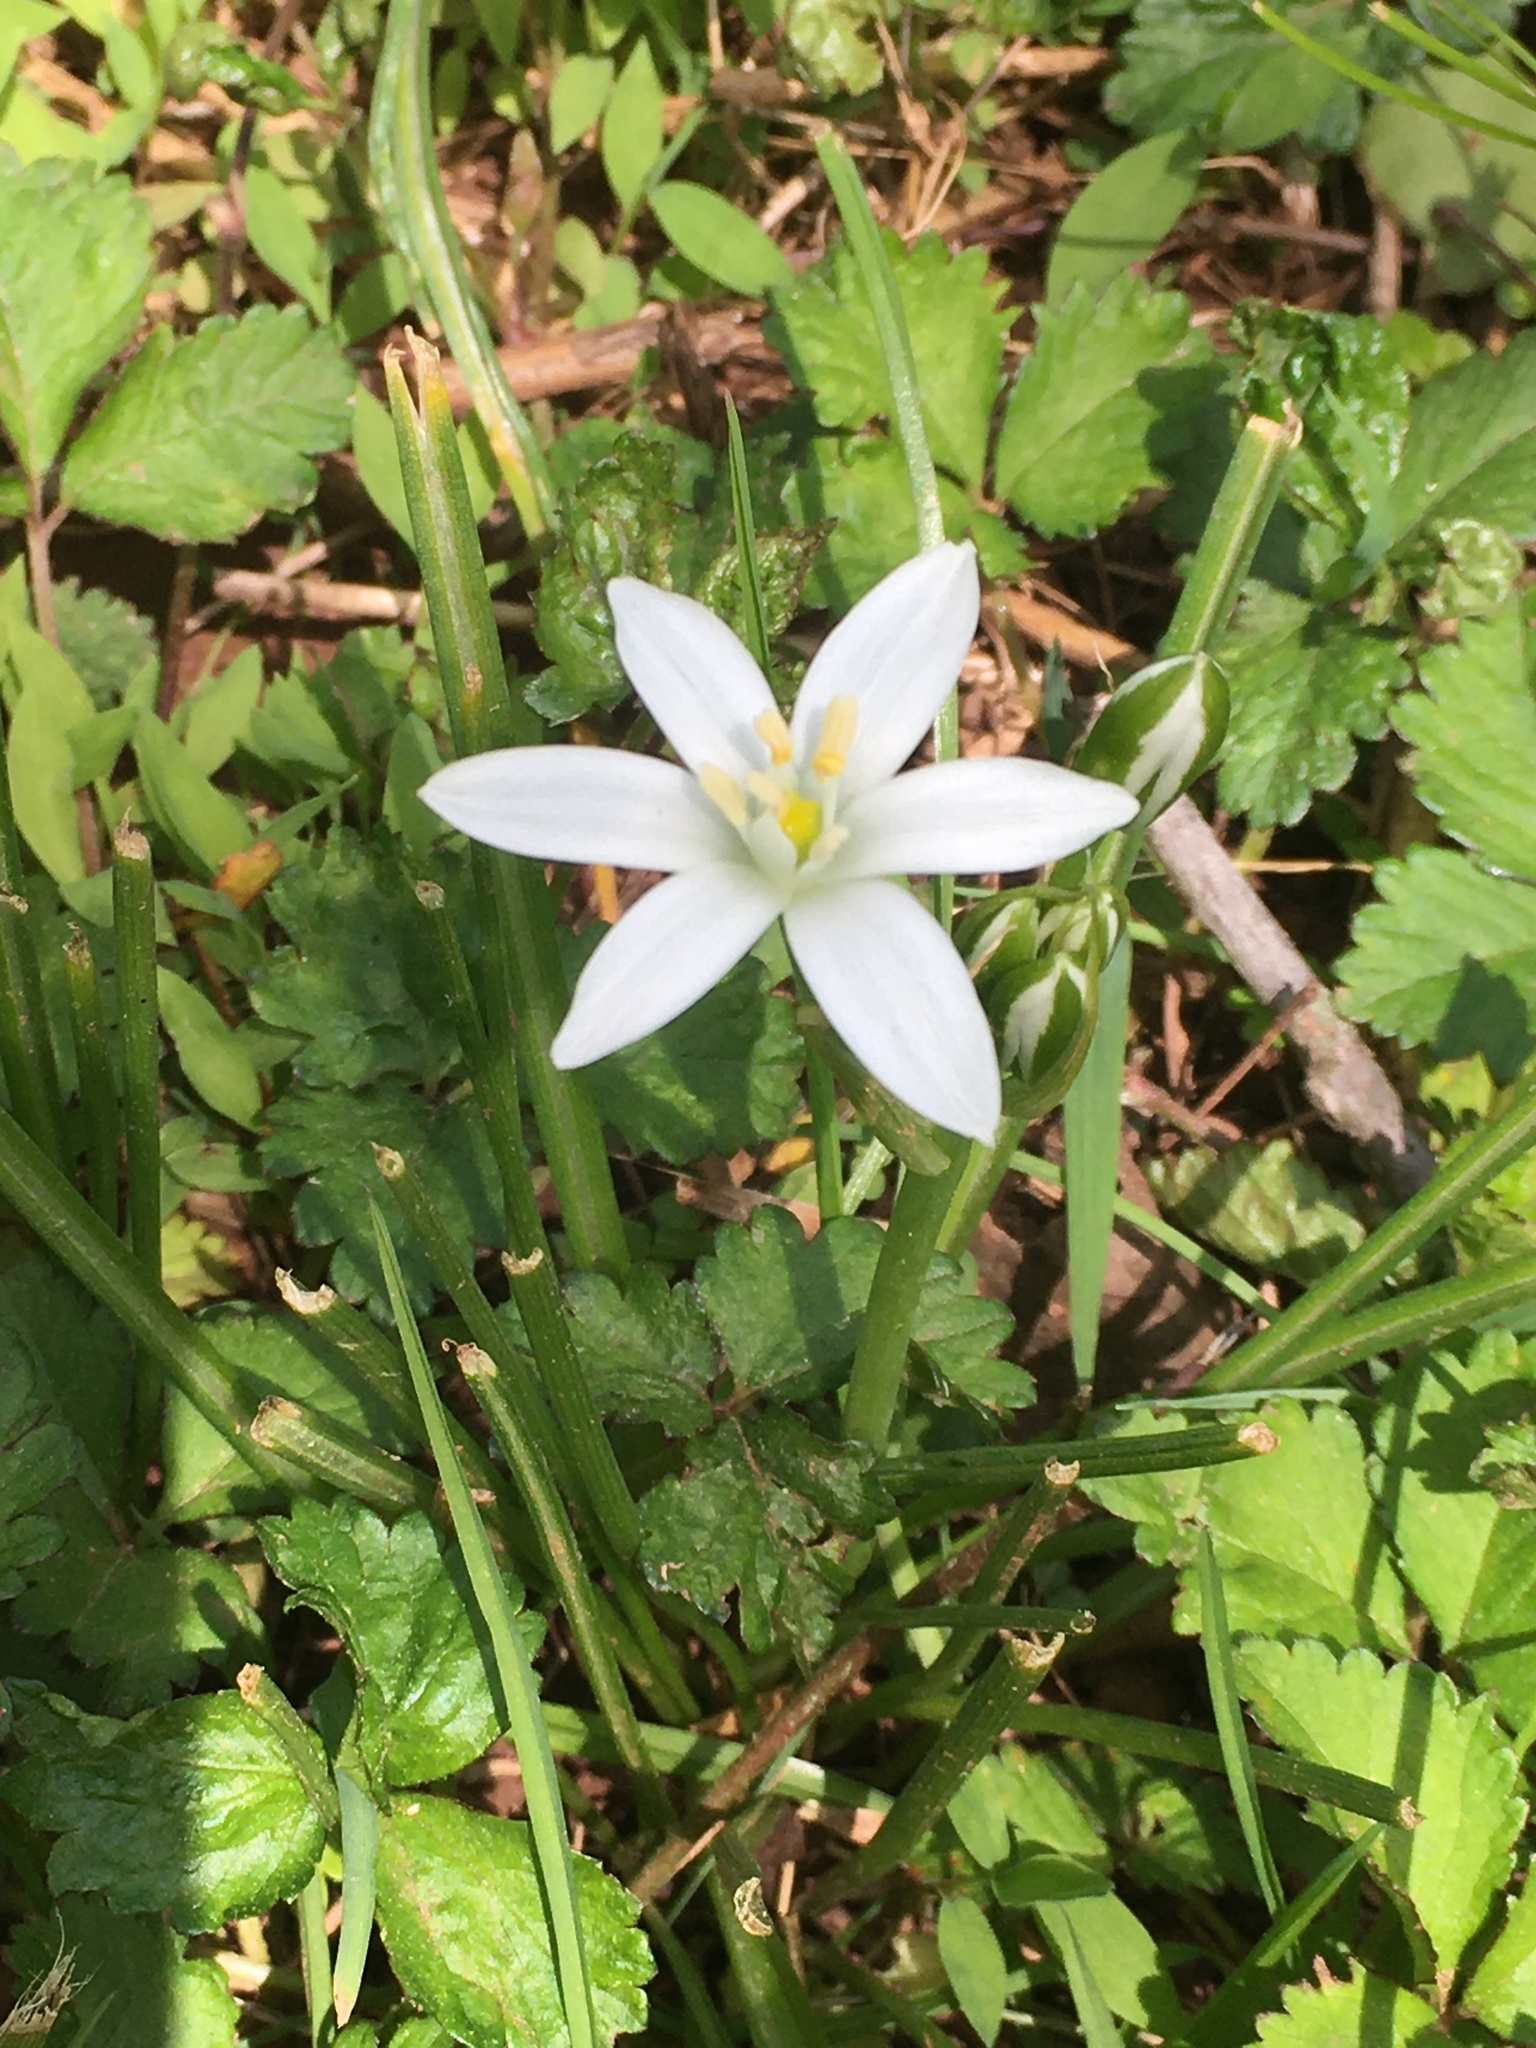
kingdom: Plantae
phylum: Tracheophyta
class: Liliopsida
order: Asparagales
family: Asparagaceae
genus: Ornithogalum
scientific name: Ornithogalum umbellatum
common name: Garden star-of-bethlehem
